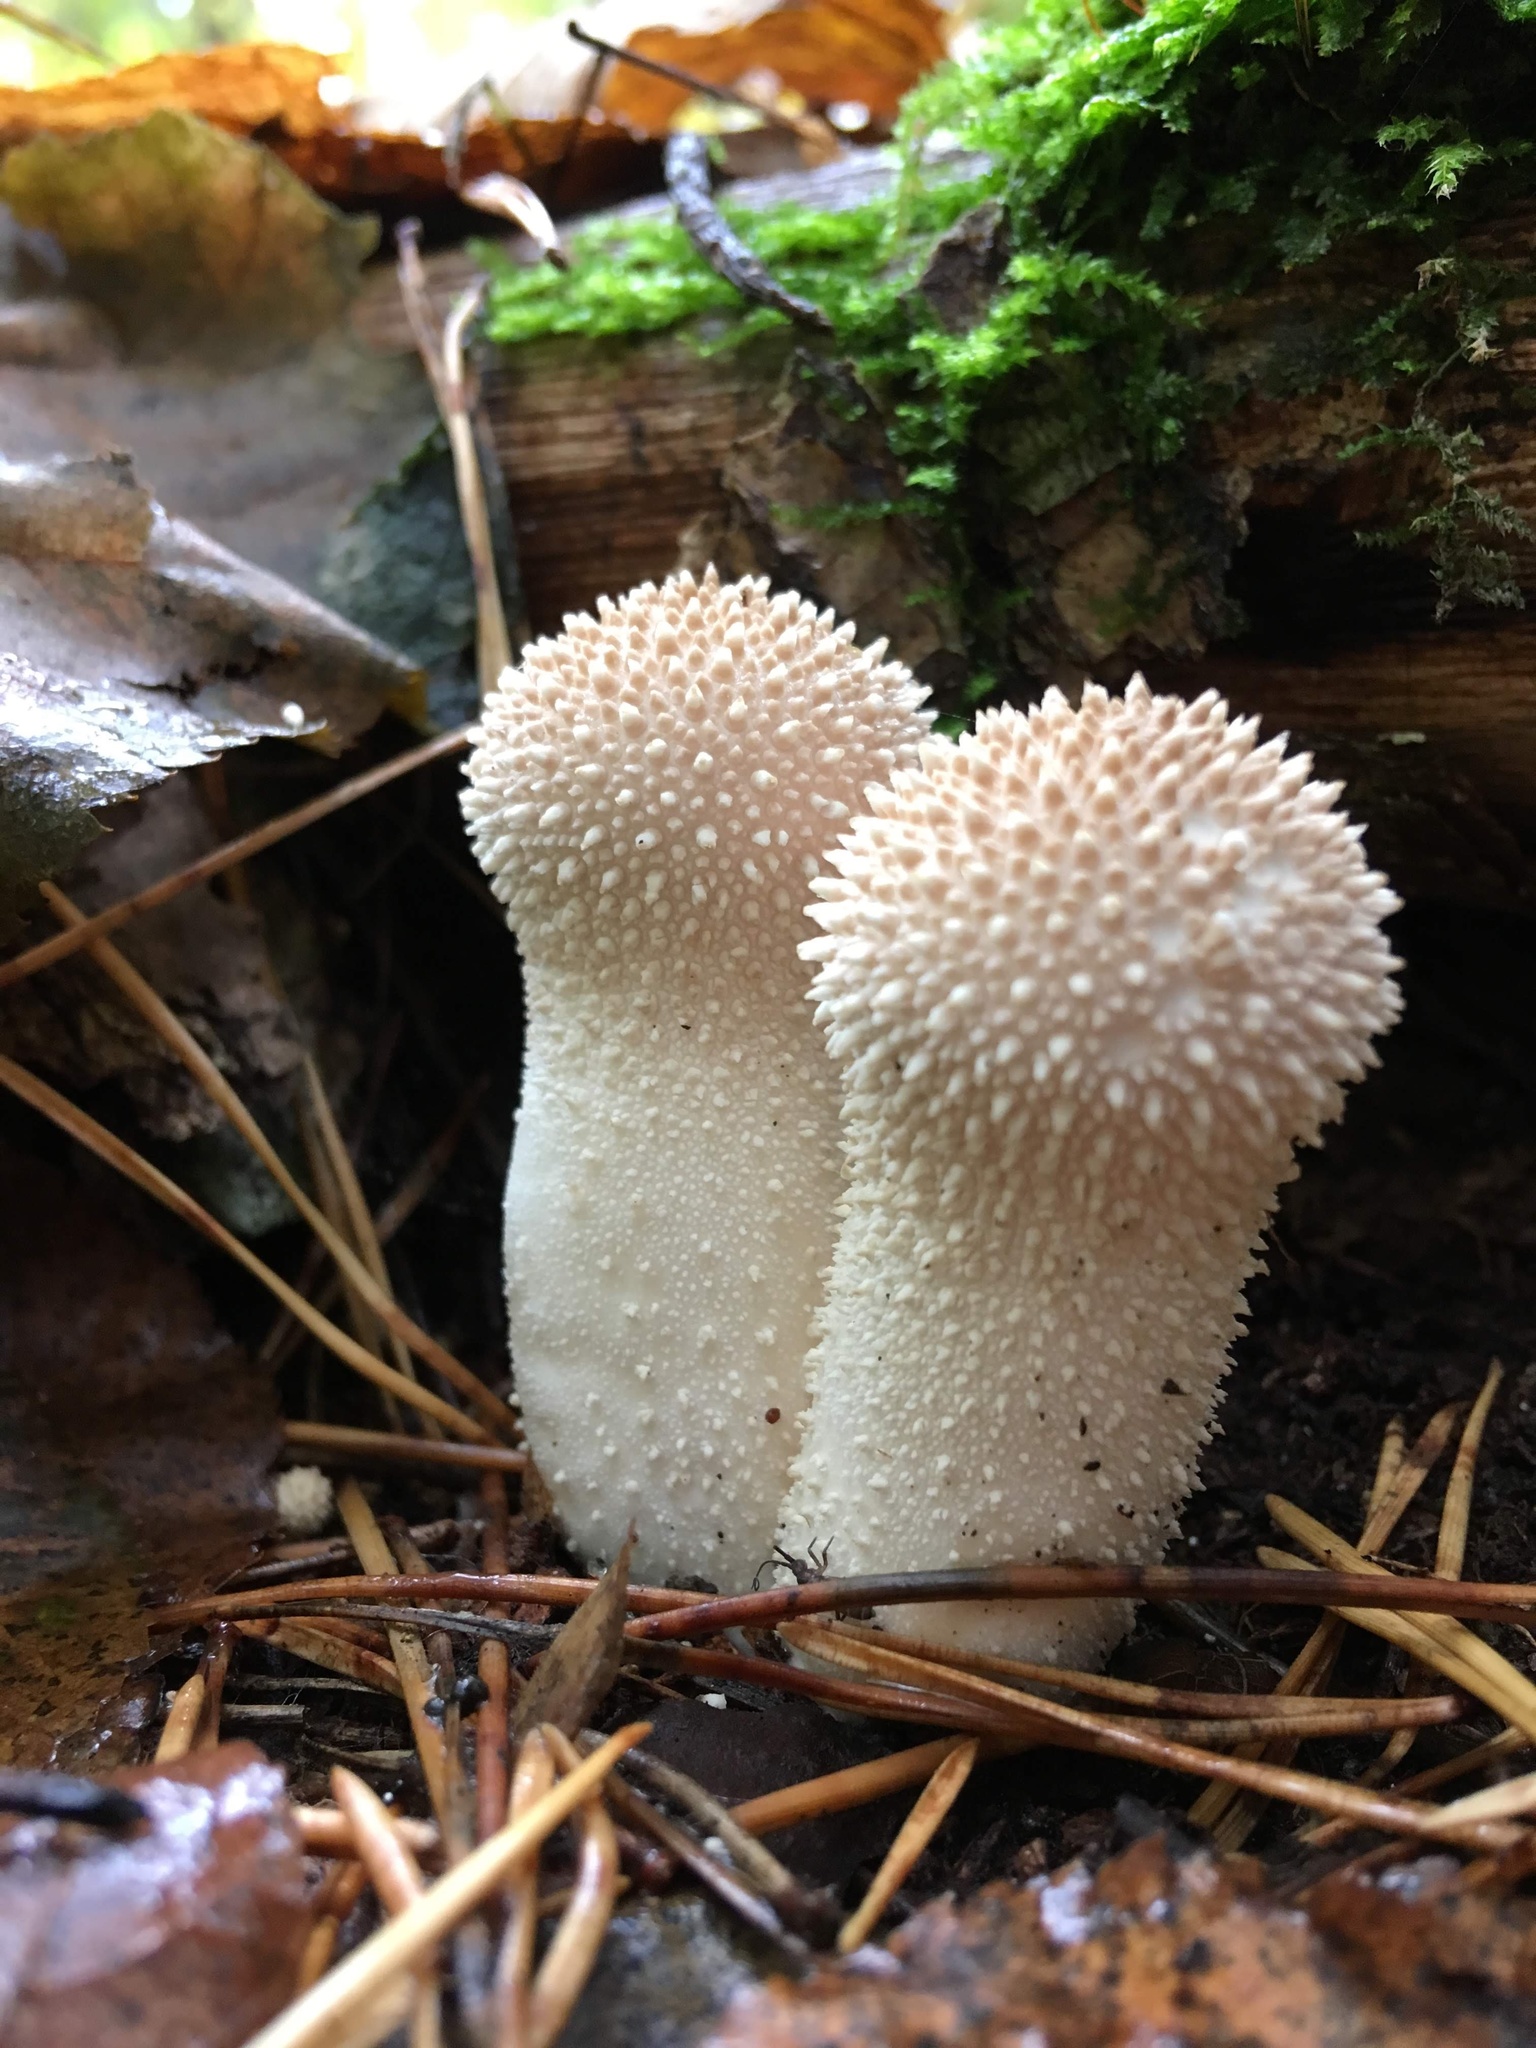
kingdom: Fungi
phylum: Basidiomycota
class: Agaricomycetes
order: Agaricales
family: Lycoperdaceae
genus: Lycoperdon
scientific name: Lycoperdon perlatum
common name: Common puffball
